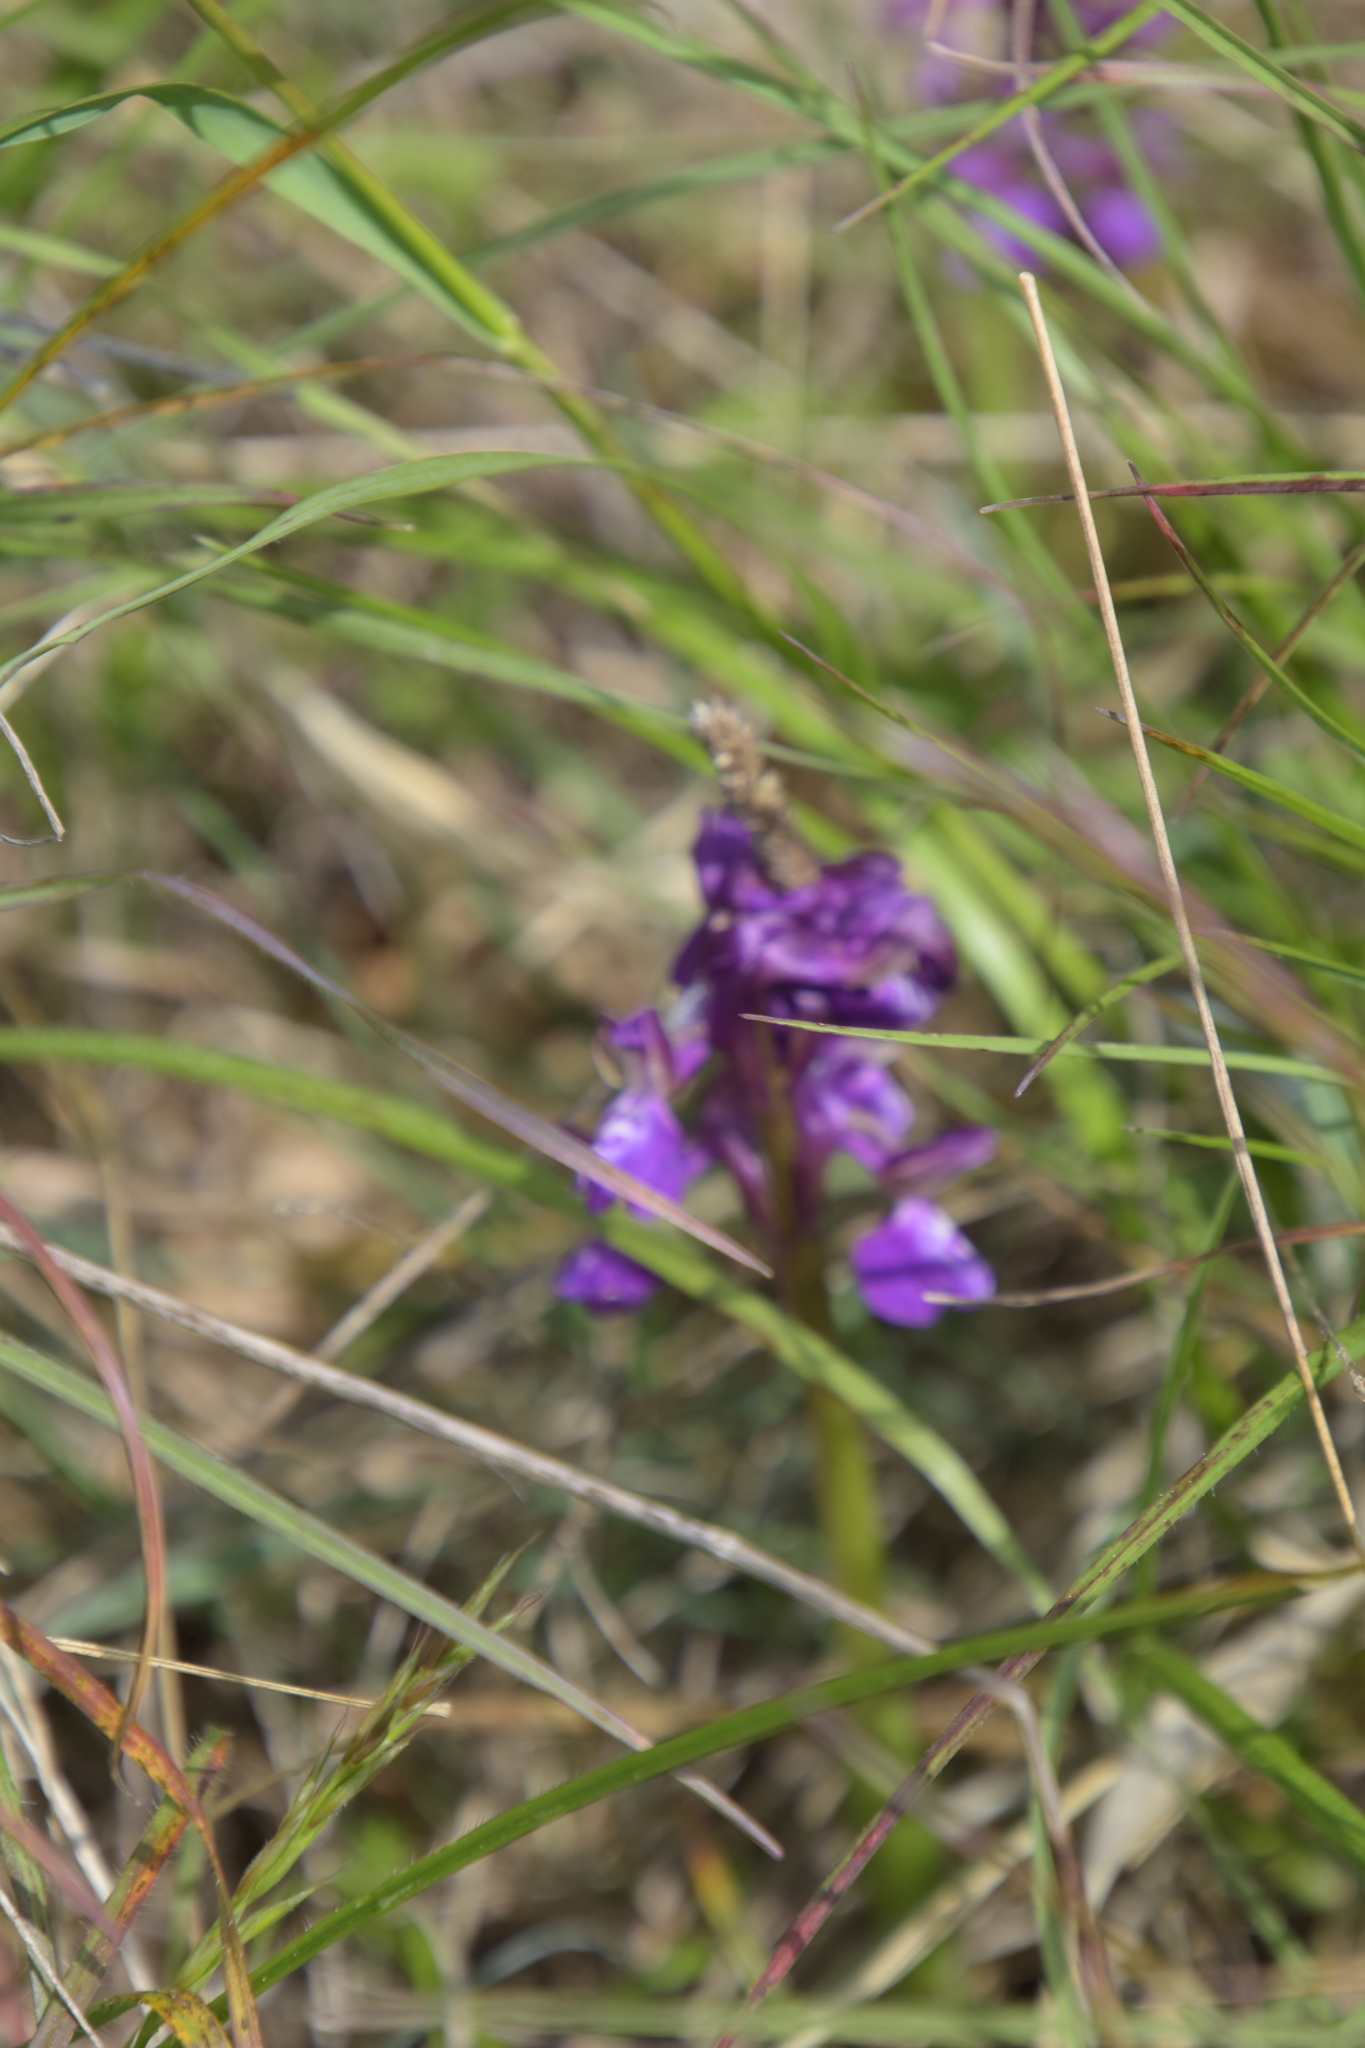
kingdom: Plantae
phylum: Tracheophyta
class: Liliopsida
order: Asparagales
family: Orchidaceae
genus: Anacamptis
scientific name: Anacamptis morio
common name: Green-winged orchid
